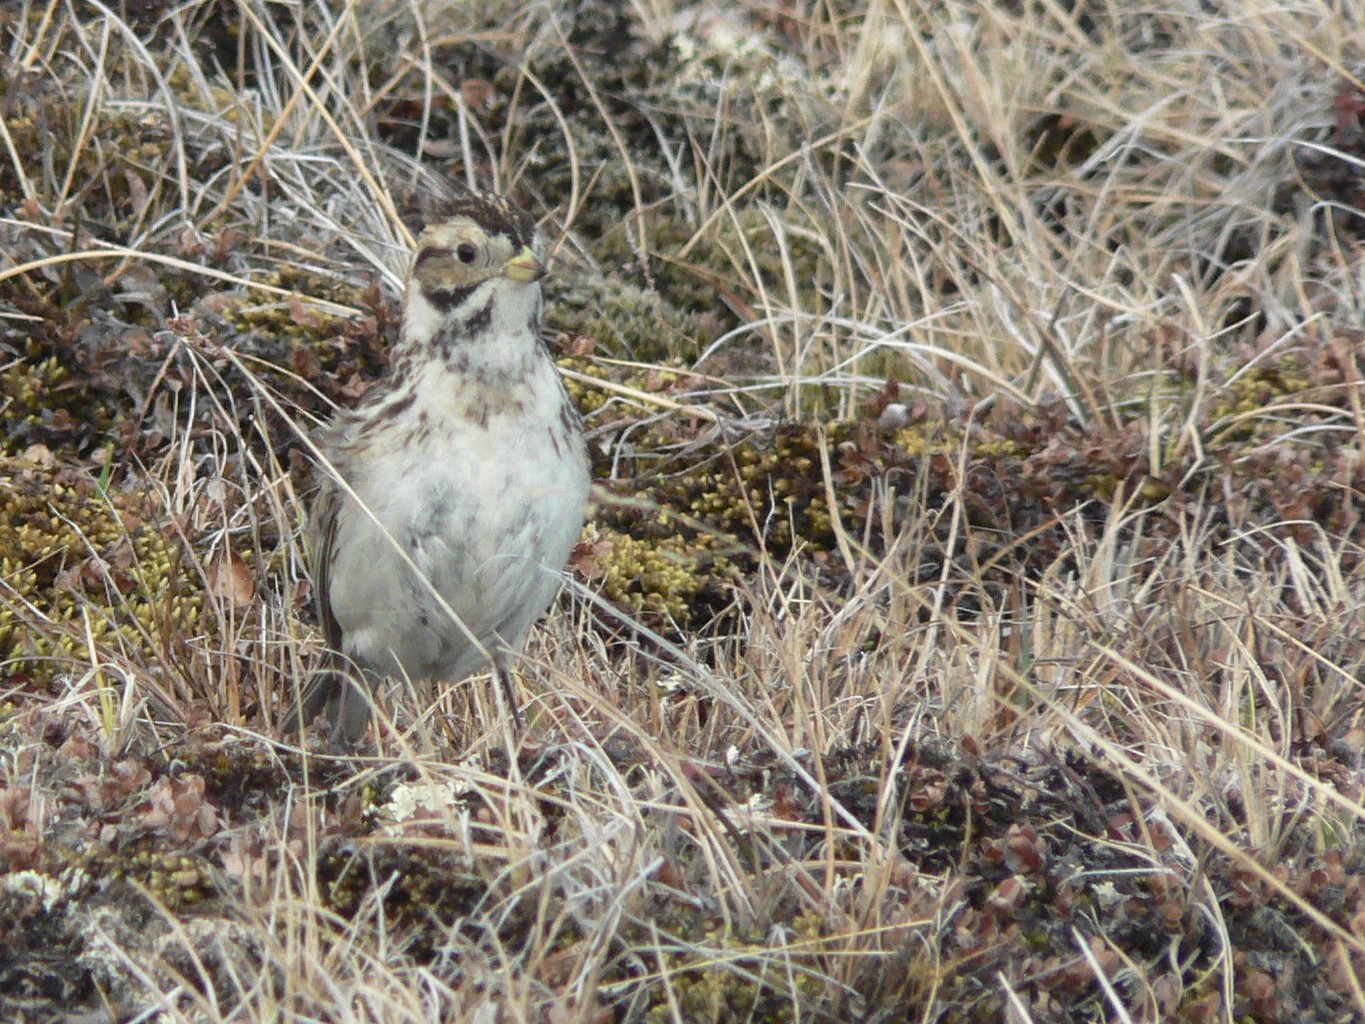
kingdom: Animalia
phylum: Chordata
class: Aves
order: Passeriformes
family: Calcariidae
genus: Calcarius
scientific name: Calcarius lapponicus
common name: Lapland longspur
